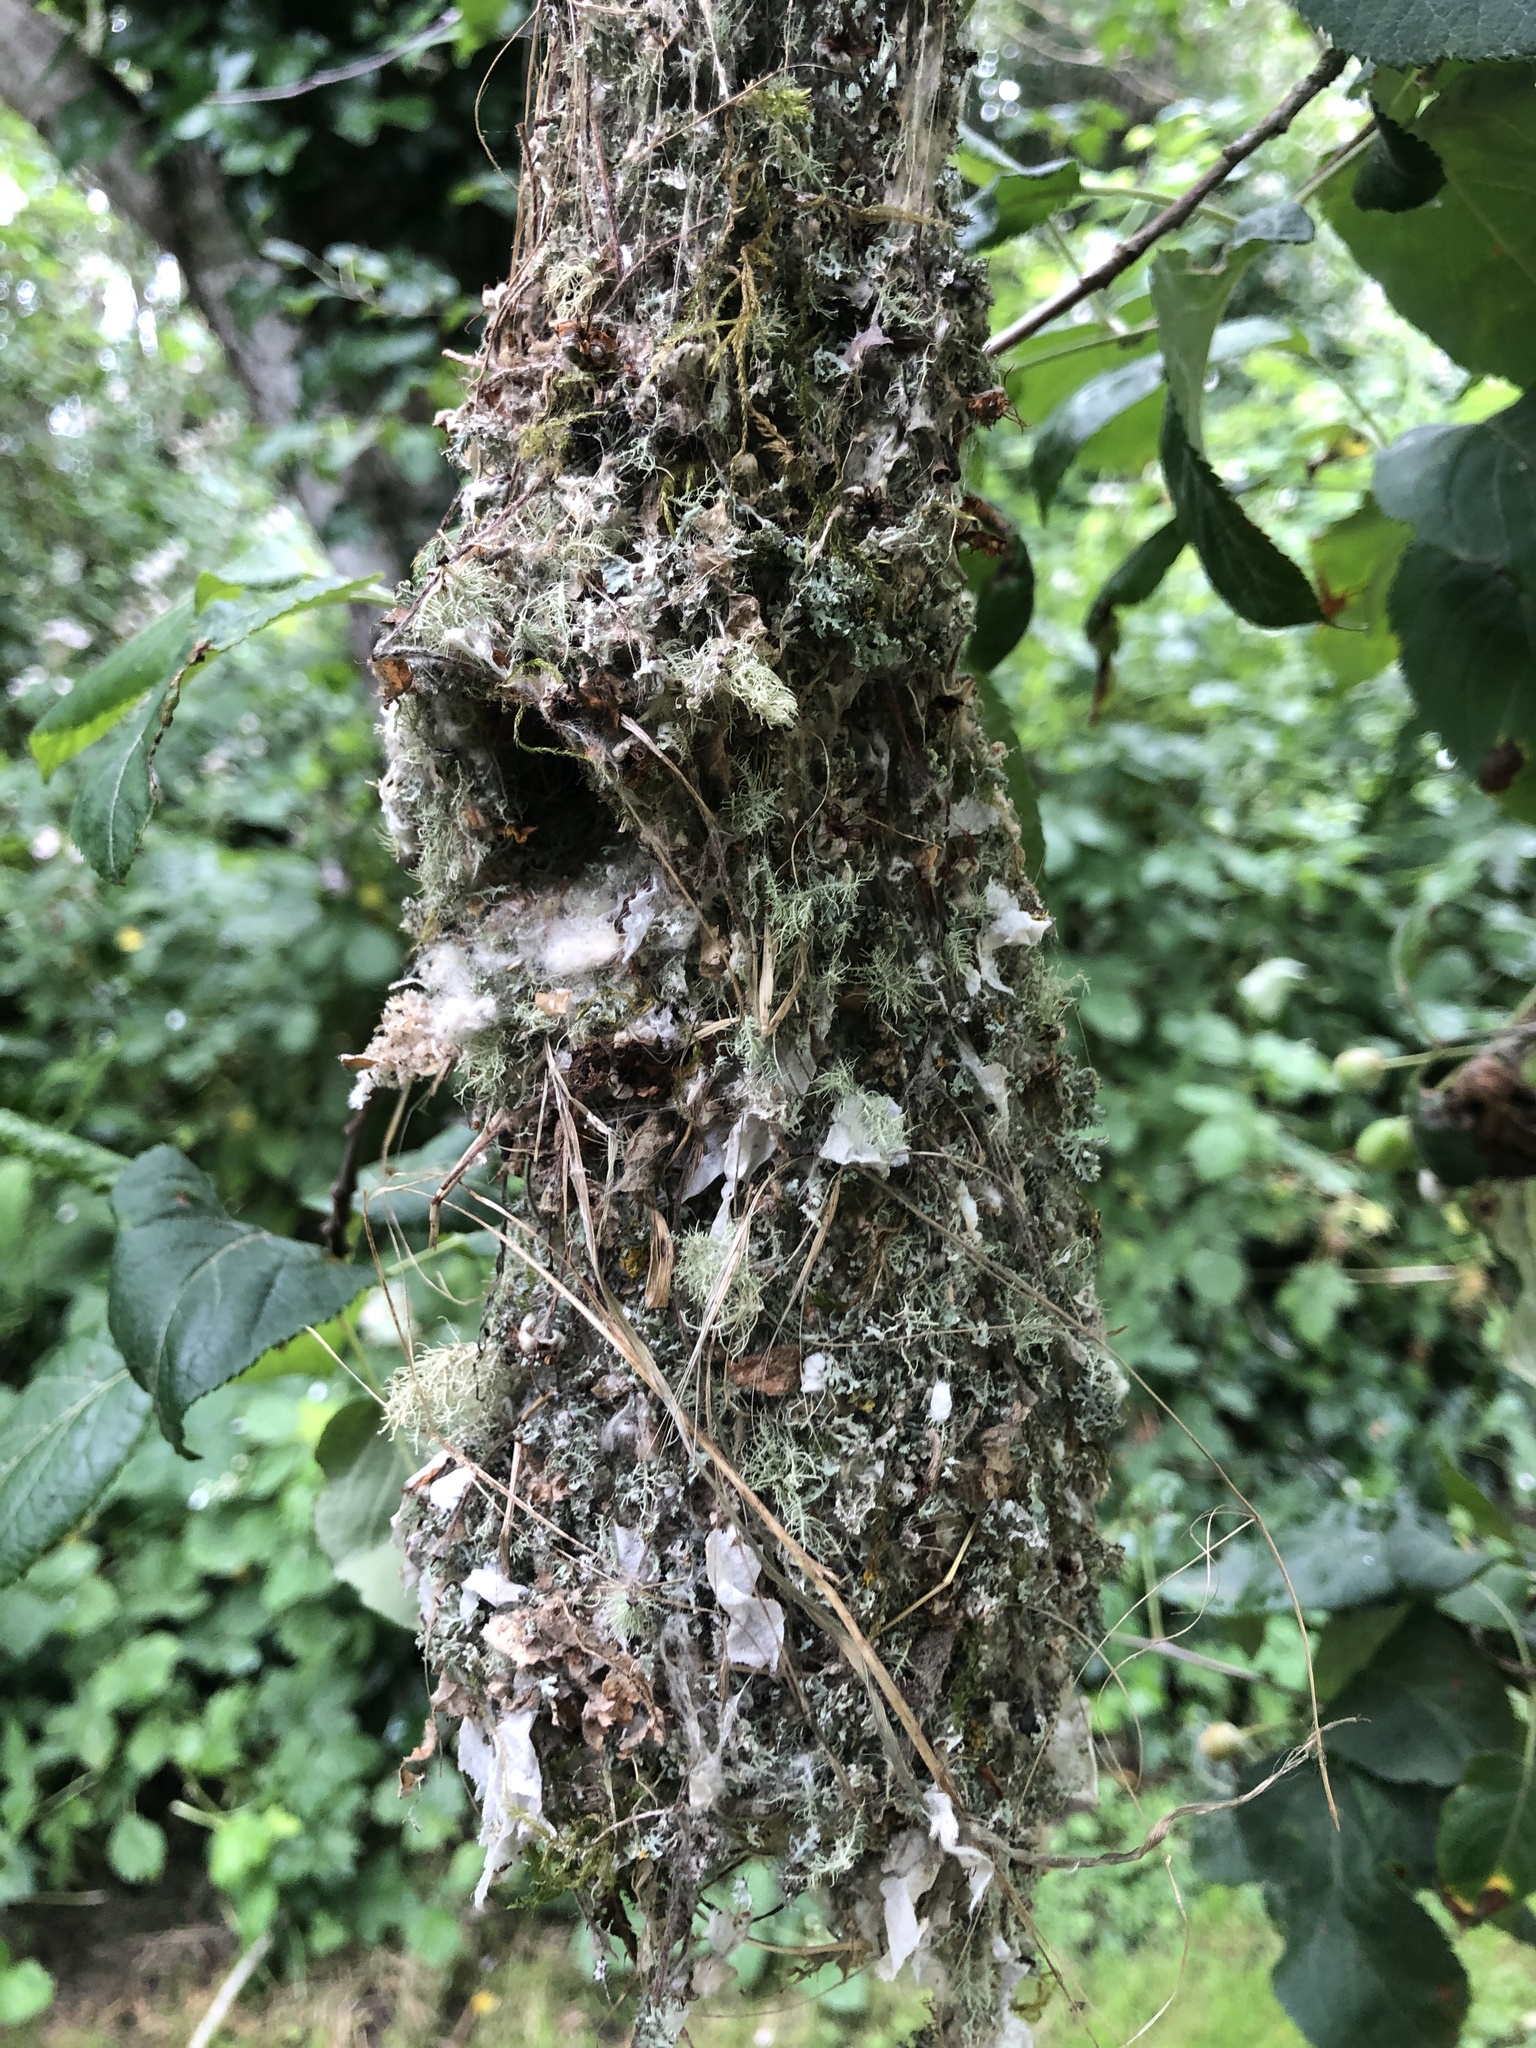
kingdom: Animalia
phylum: Chordata
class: Aves
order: Passeriformes
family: Aegithalidae
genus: Psaltriparus
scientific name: Psaltriparus minimus
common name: American bushtit
